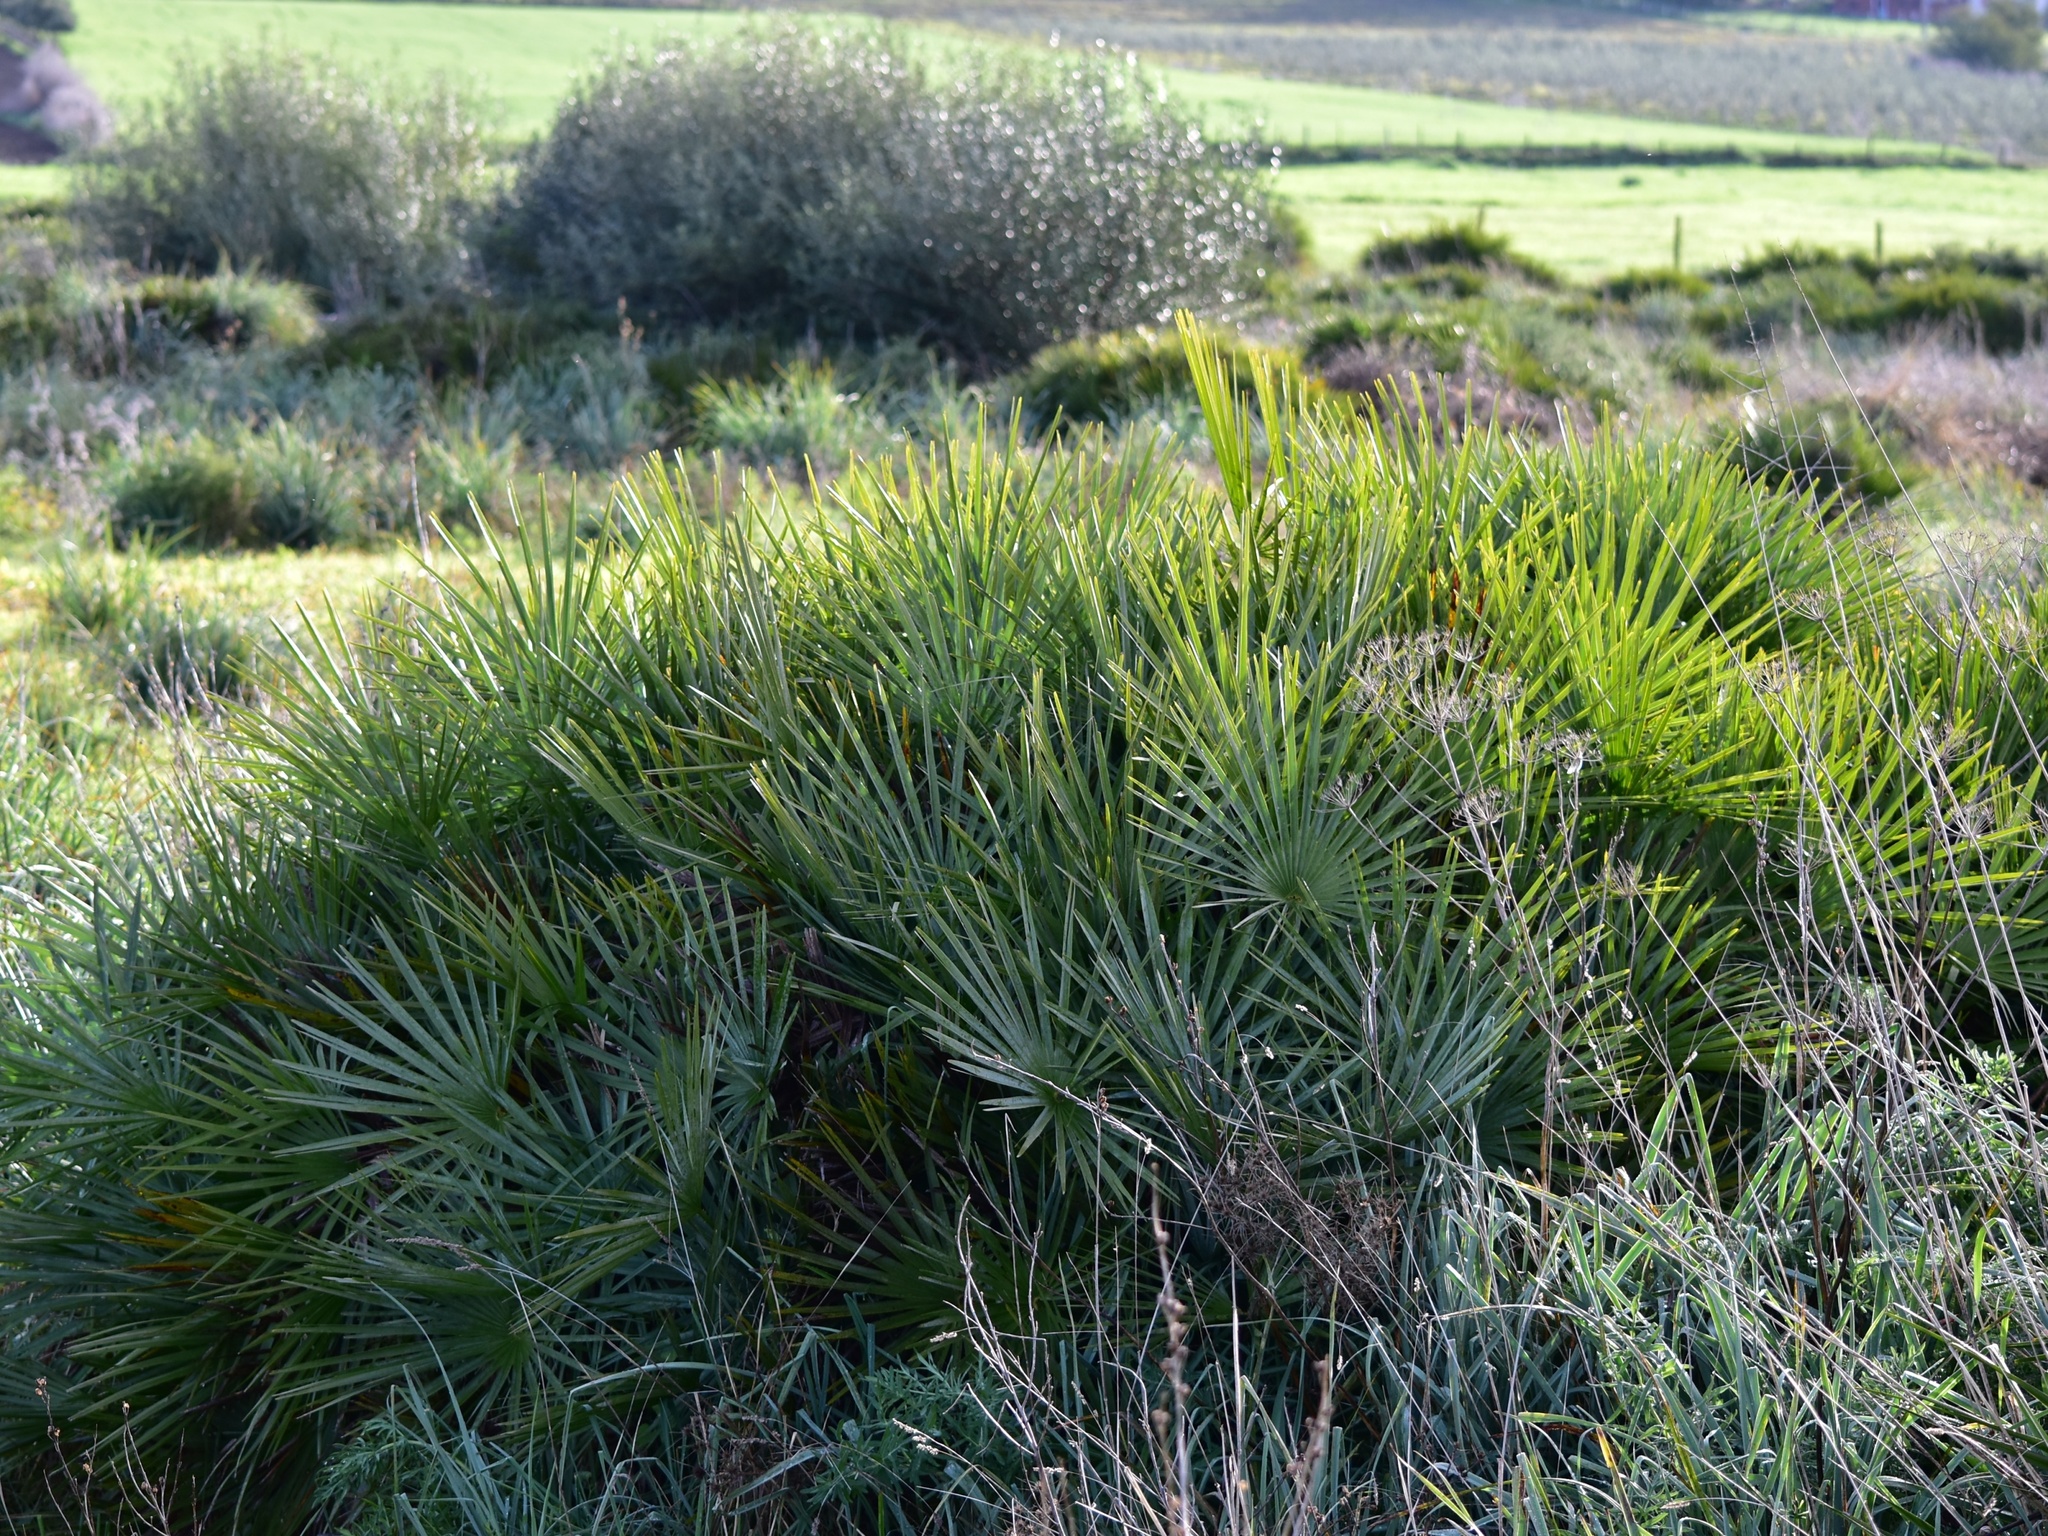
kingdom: Plantae
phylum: Tracheophyta
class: Liliopsida
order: Arecales
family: Arecaceae
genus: Chamaerops
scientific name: Chamaerops humilis
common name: Dwarf fan palm
